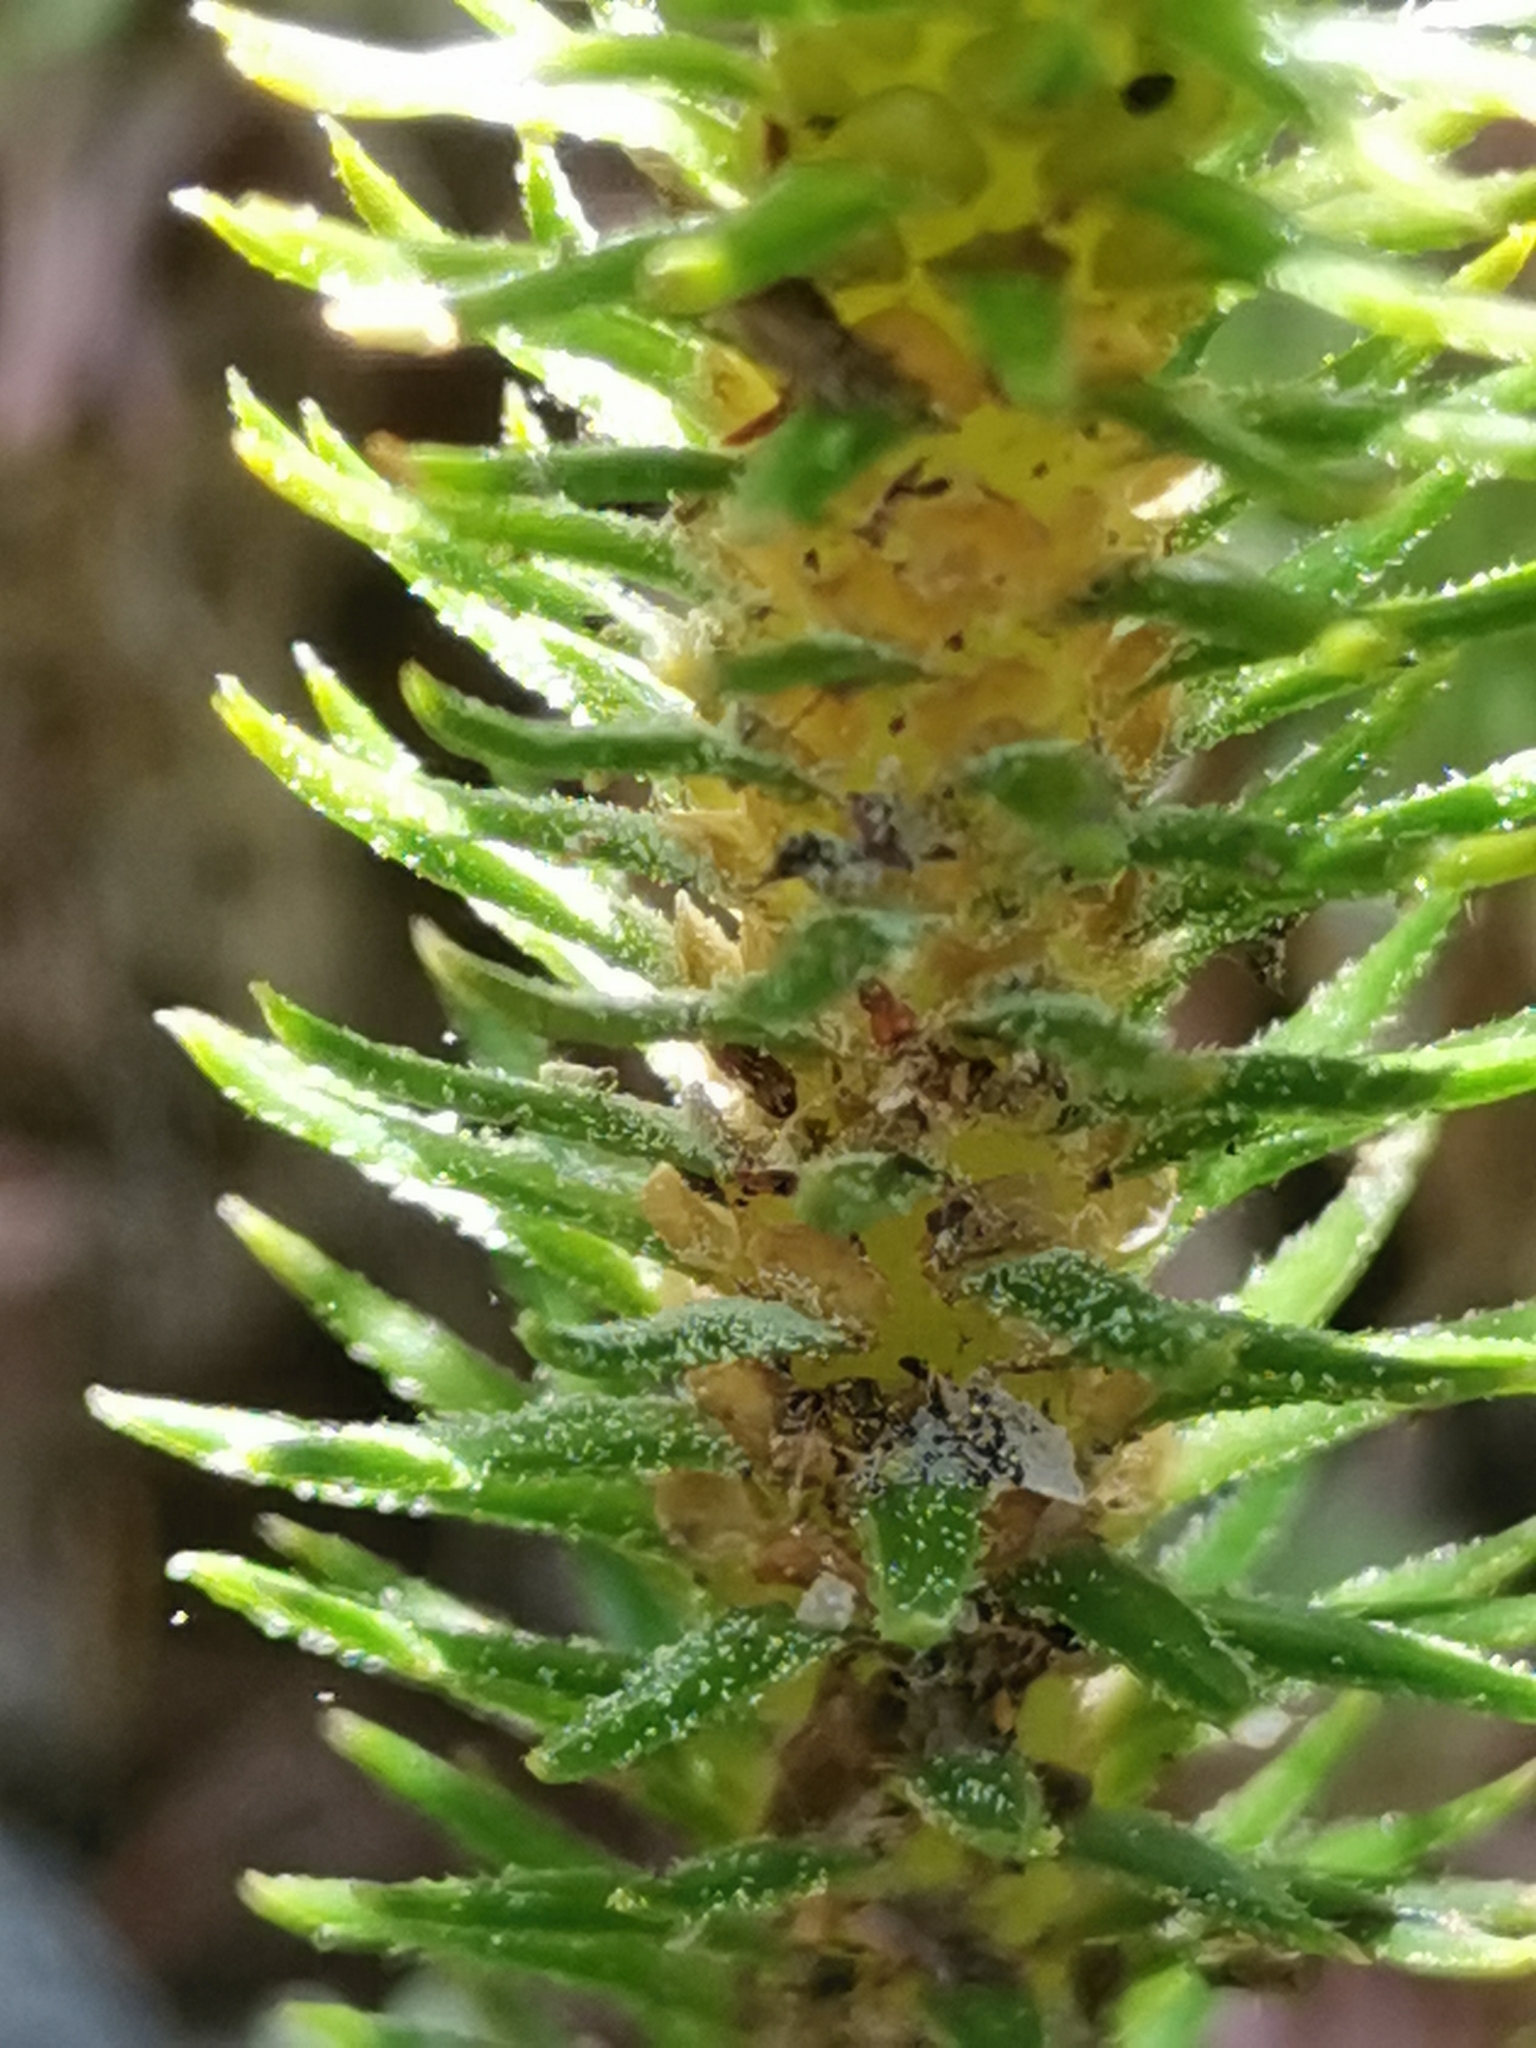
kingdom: Plantae
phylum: Tracheophyta
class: Lycopodiopsida
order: Lycopodiales
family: Lycopodiaceae
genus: Phlegmariurus
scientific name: Phlegmariurus dentatus
